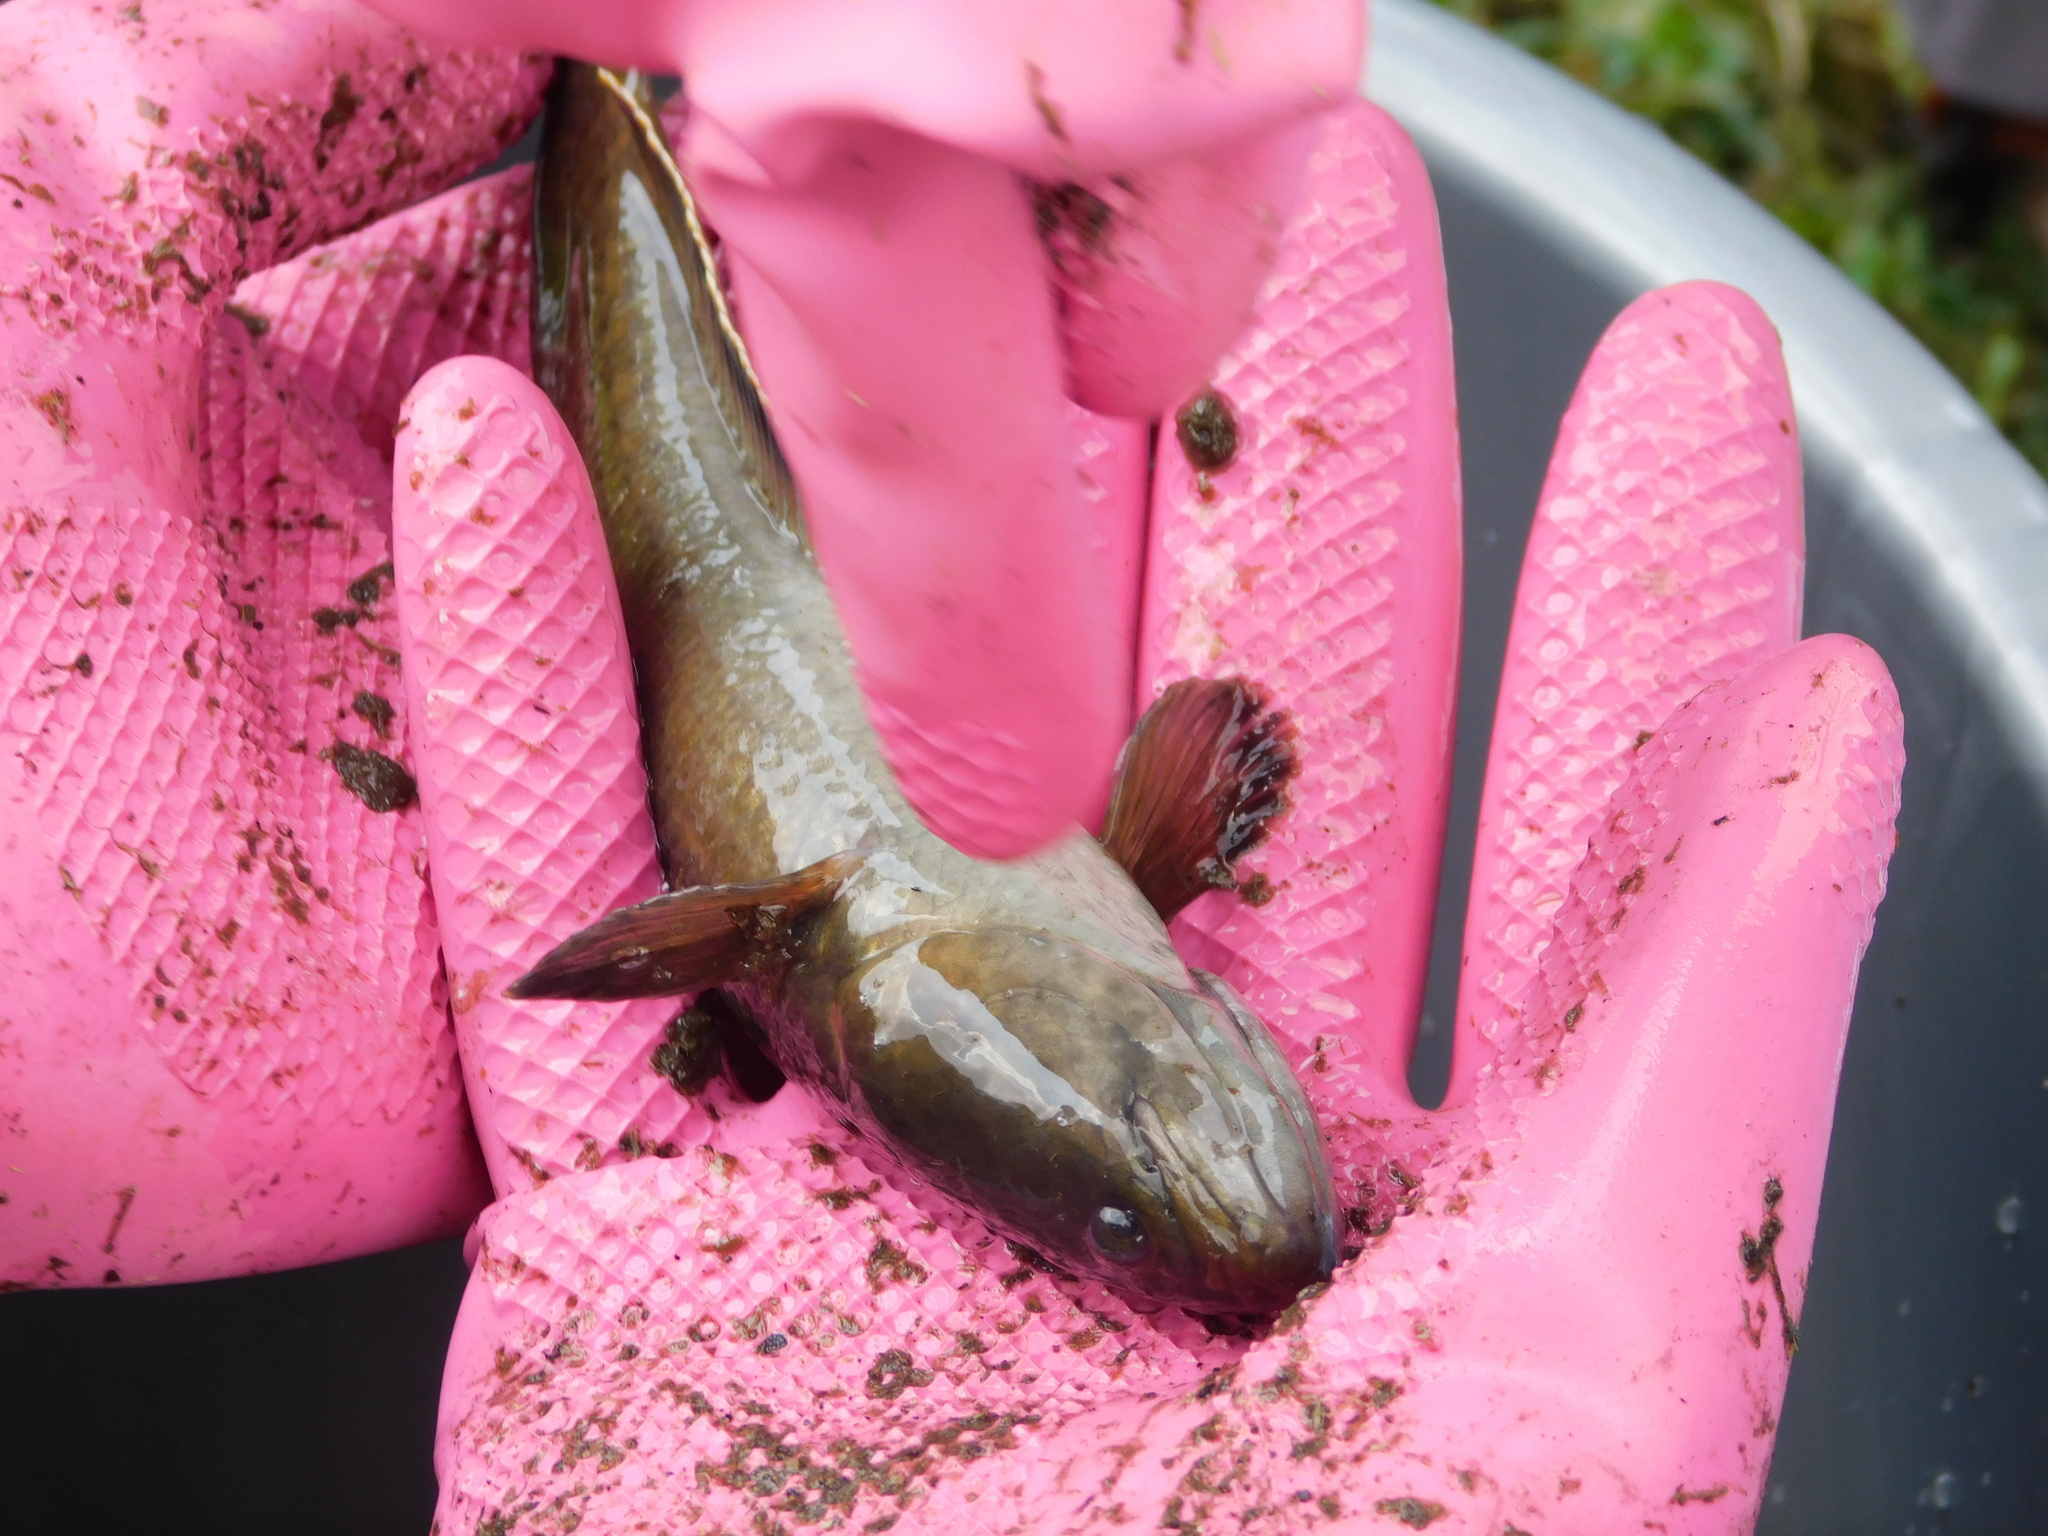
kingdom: Animalia
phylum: Chordata
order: Perciformes
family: Channidae
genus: Channa
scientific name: Channa gachua
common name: Dwarf snakehead
